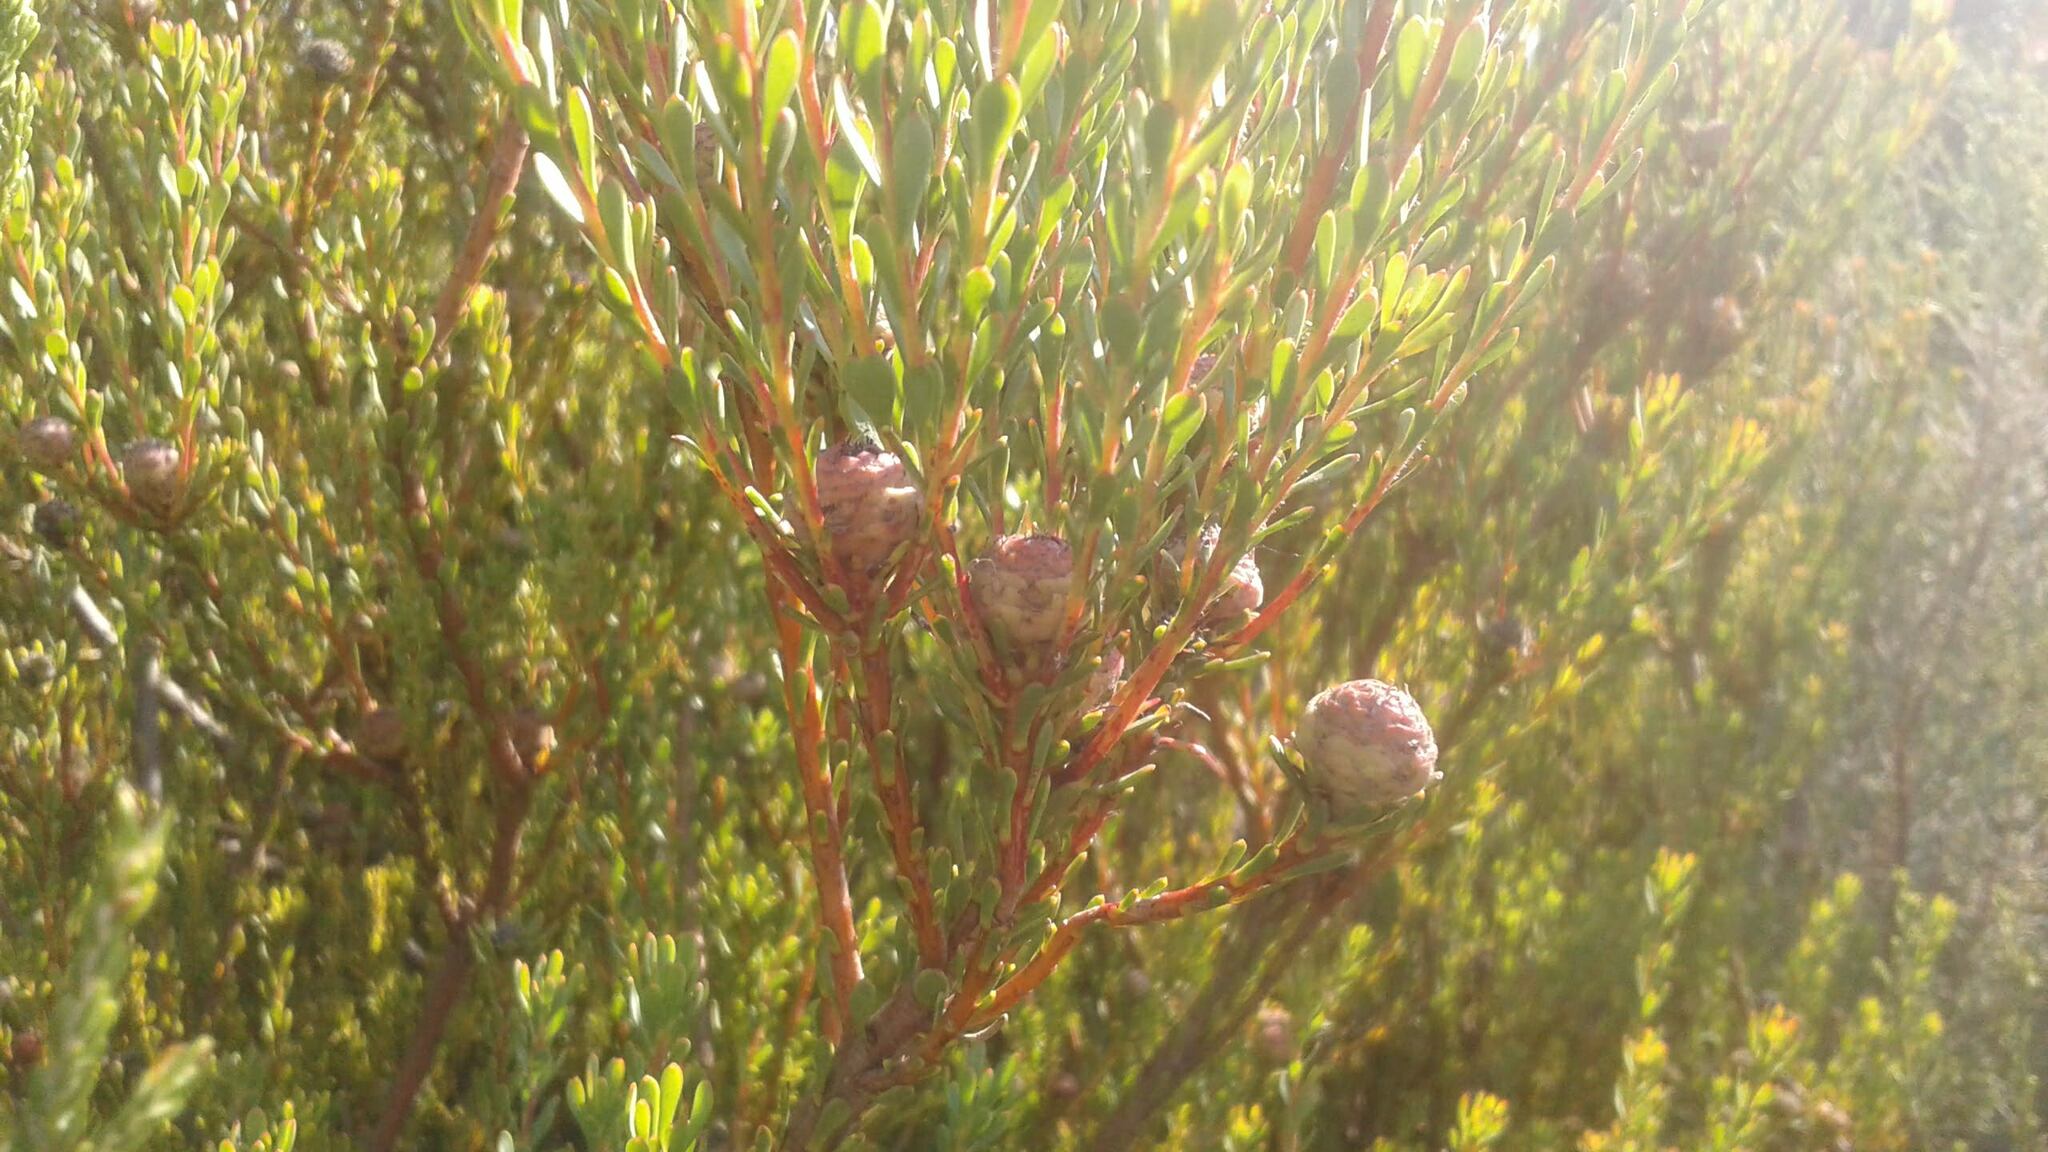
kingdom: Plantae
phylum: Tracheophyta
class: Magnoliopsida
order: Proteales
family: Proteaceae
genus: Leucadendron
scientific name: Leucadendron levisanus
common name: Cape flats conebush
